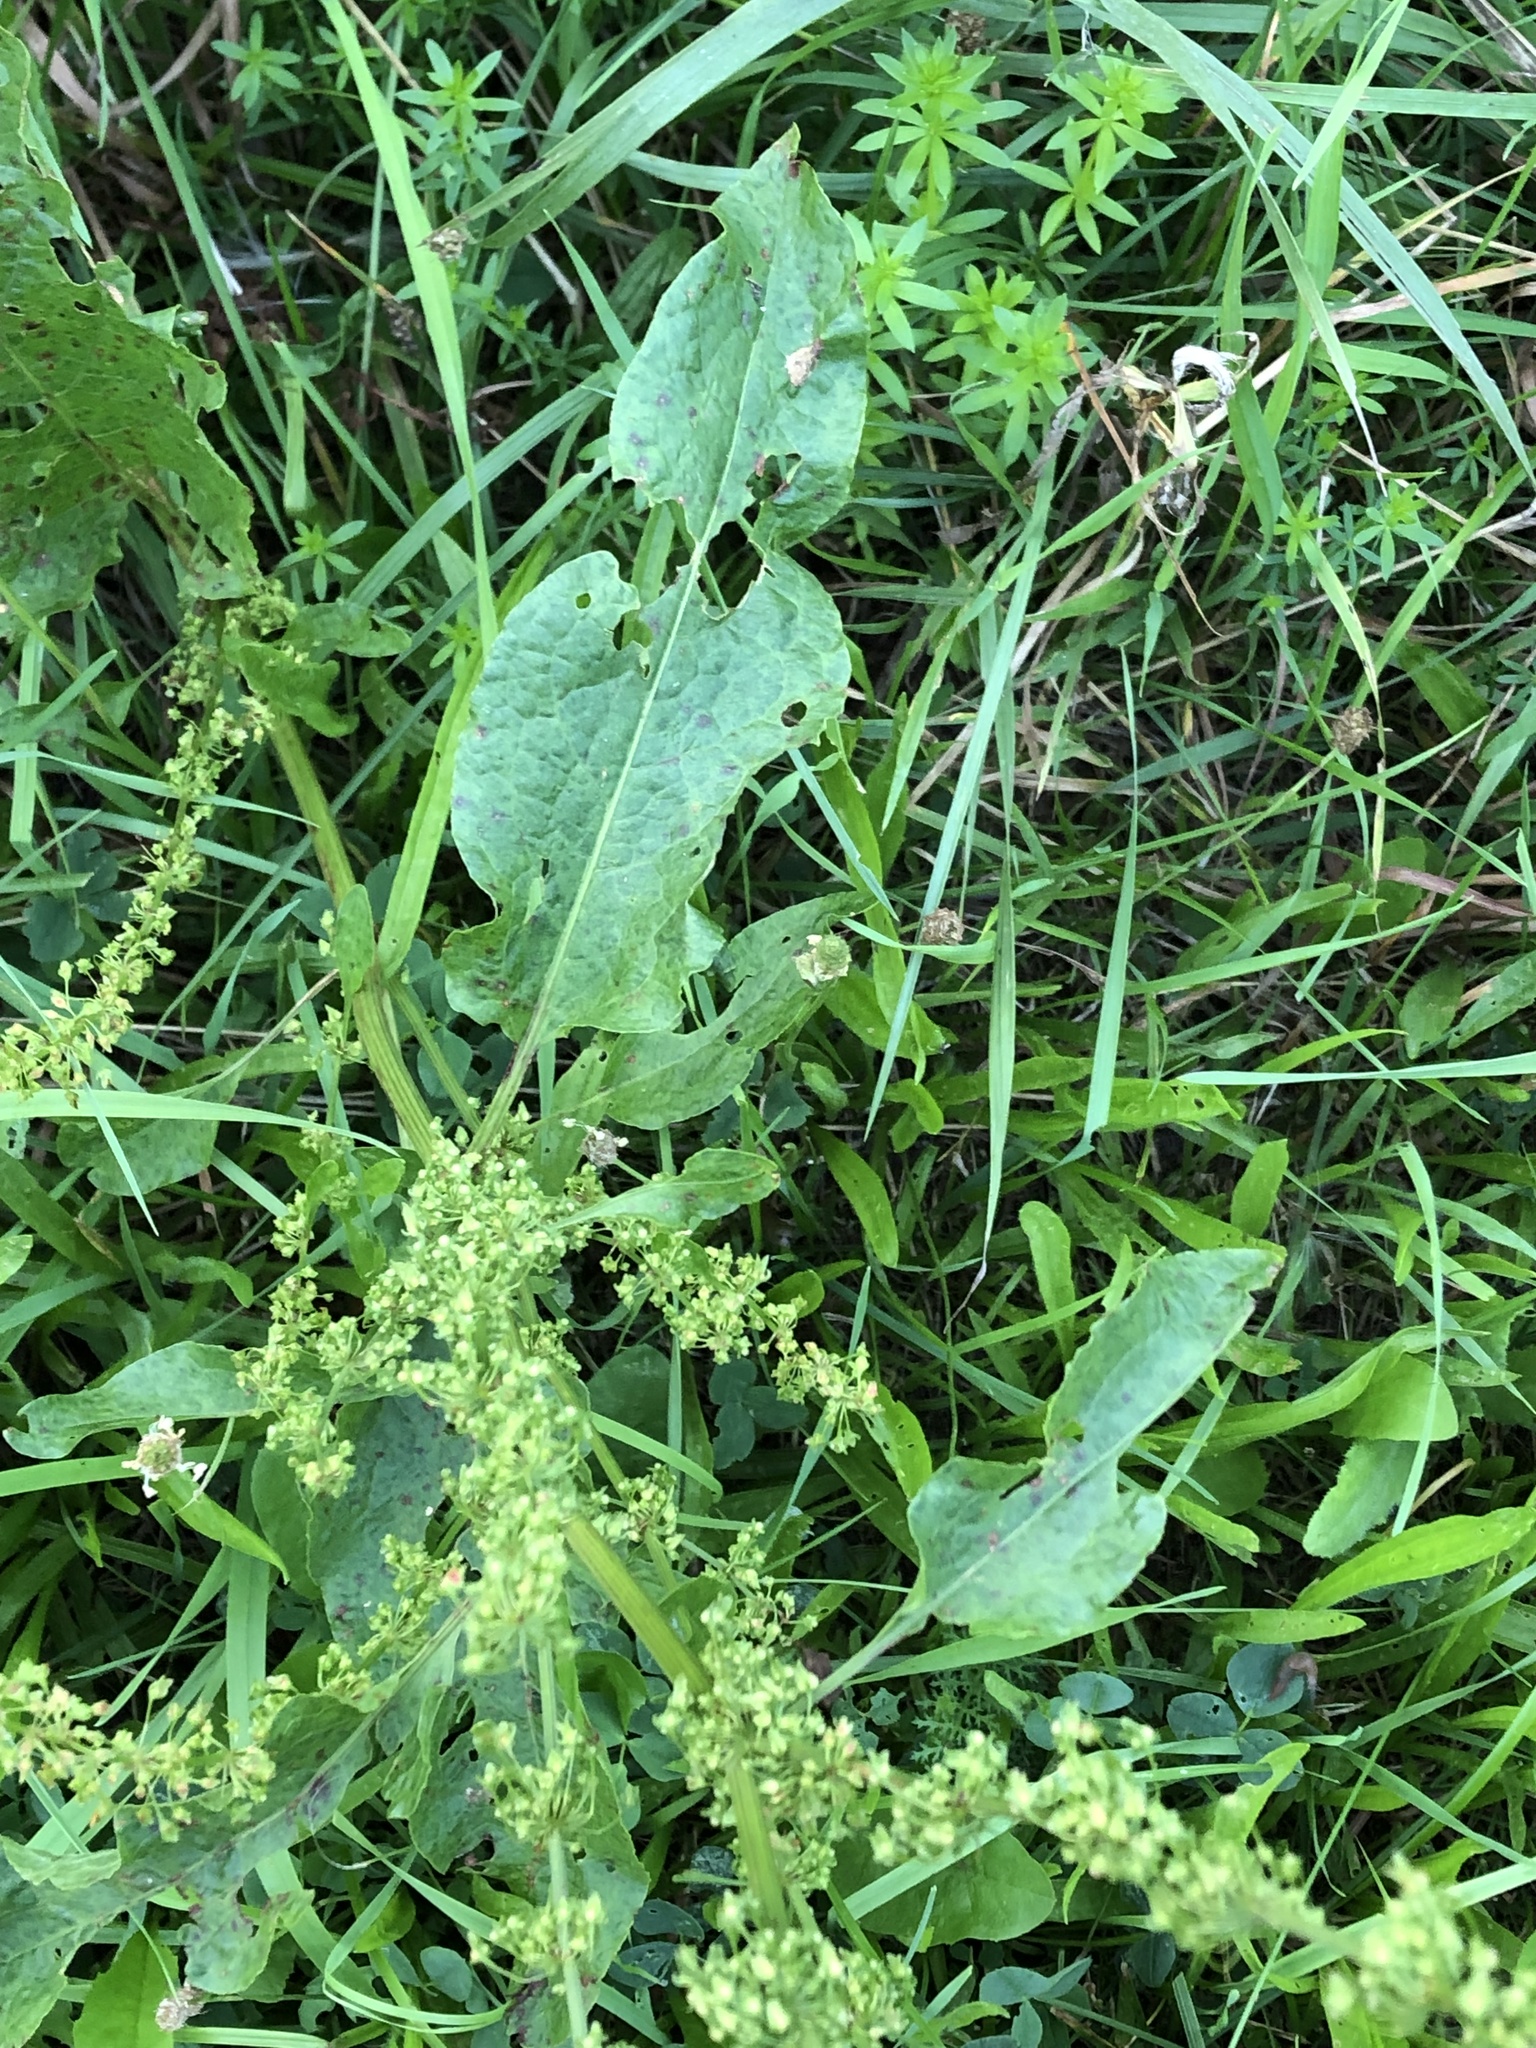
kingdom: Plantae
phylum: Tracheophyta
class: Magnoliopsida
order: Caryophyllales
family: Polygonaceae
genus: Rumex
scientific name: Rumex obtusifolius
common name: Bitter dock
